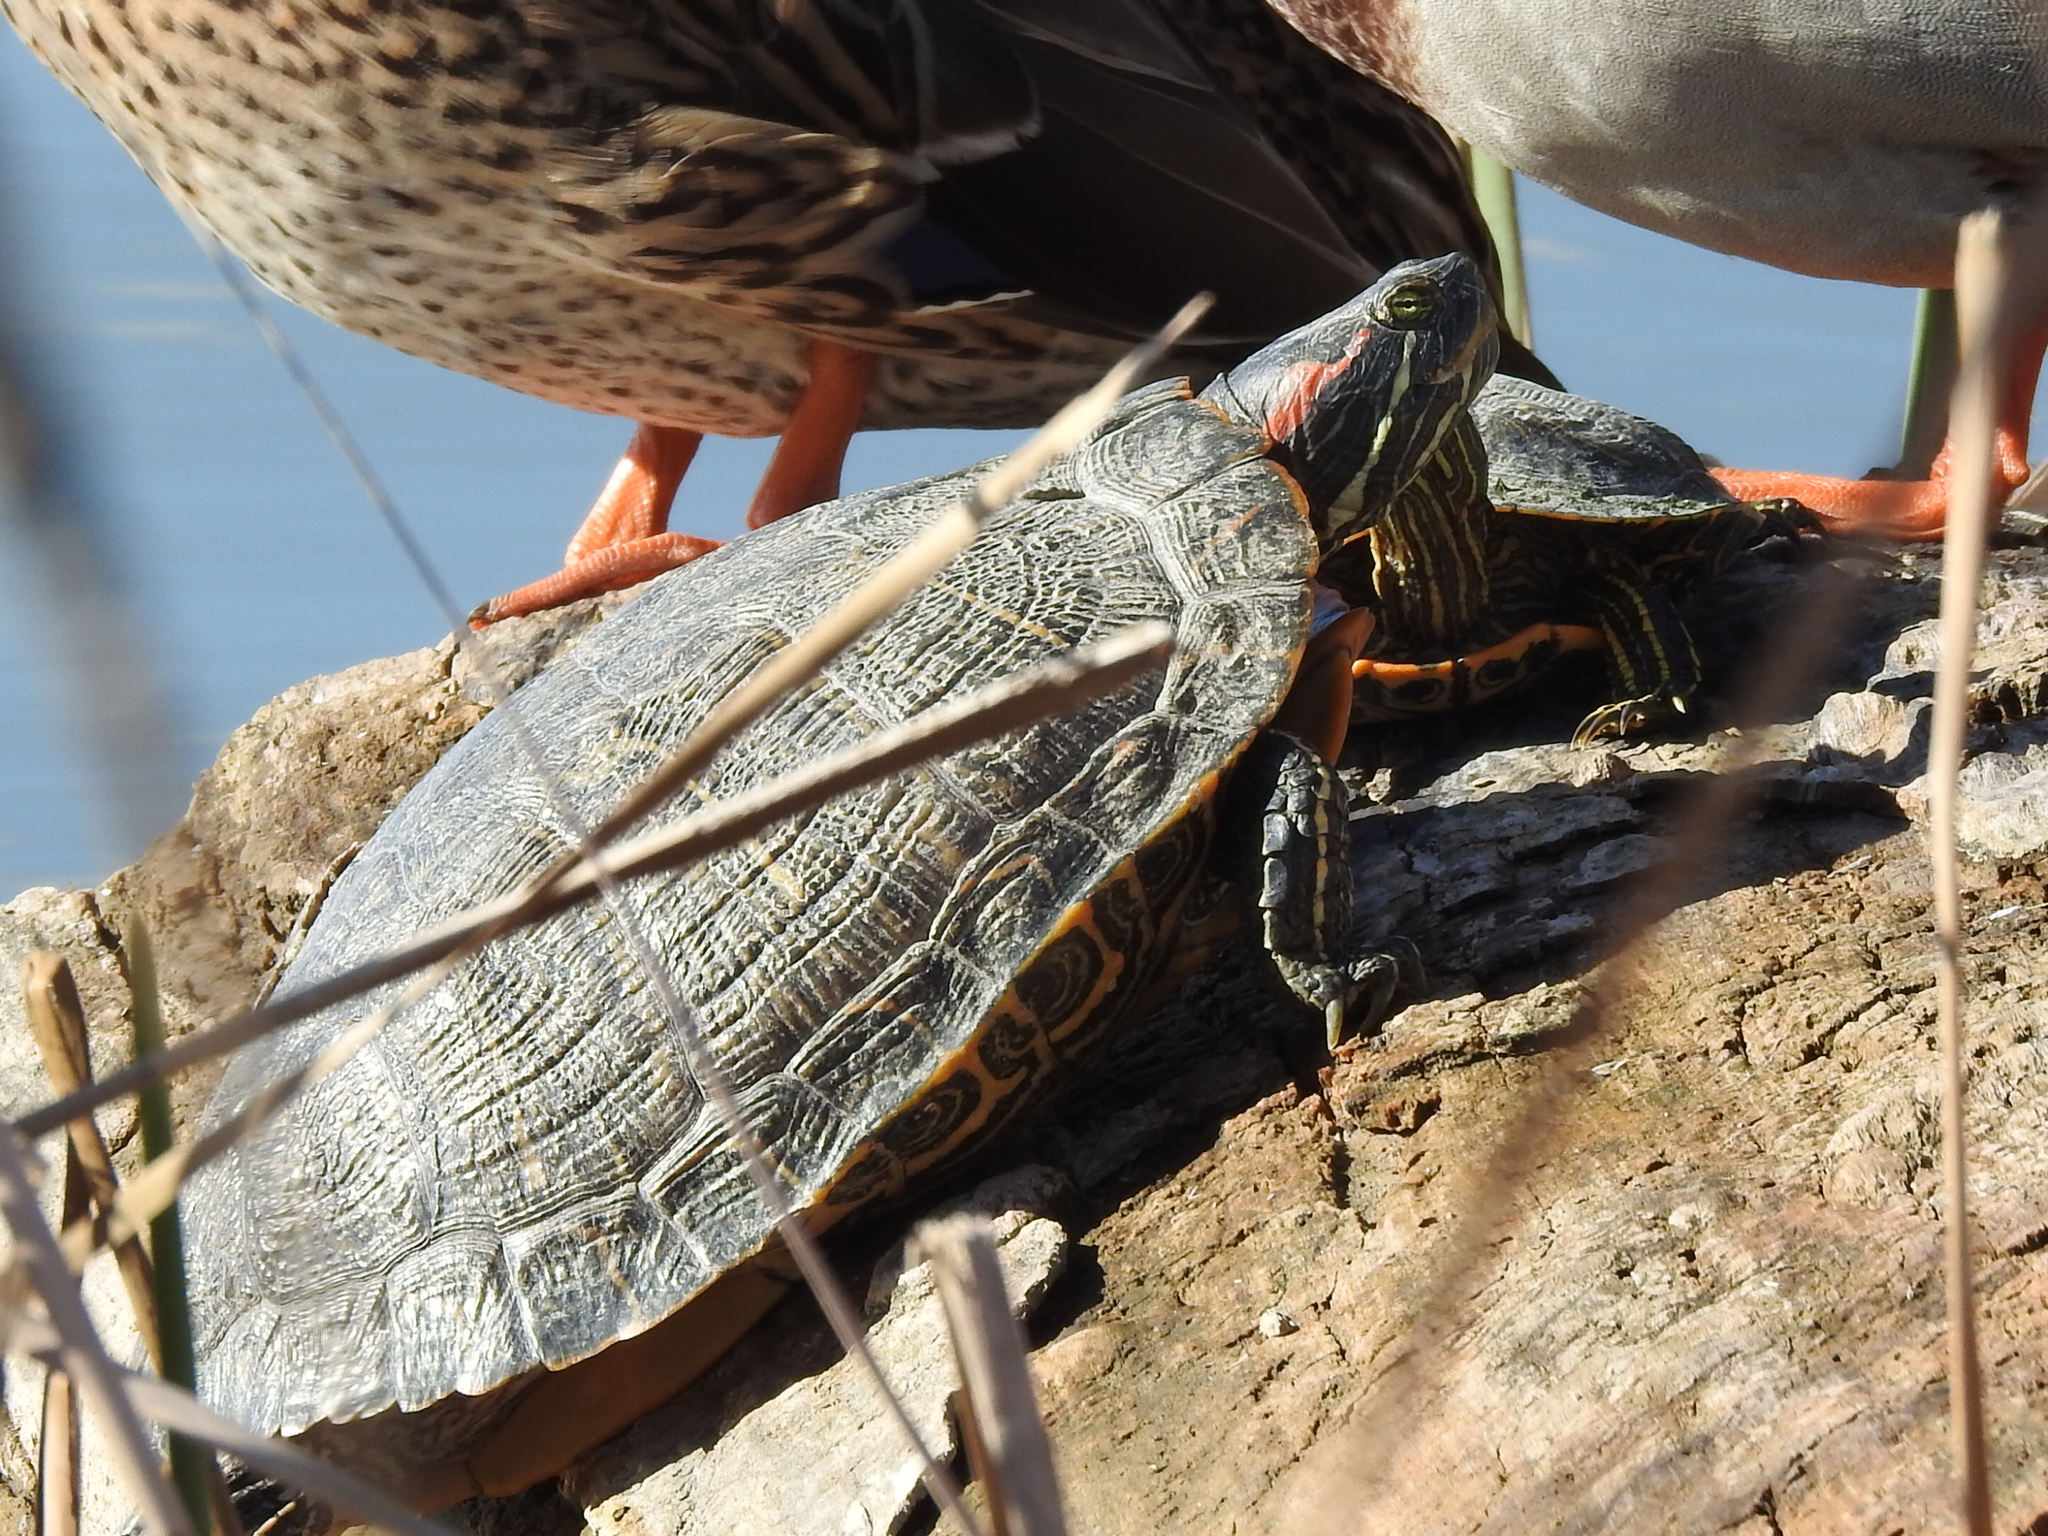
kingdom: Animalia
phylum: Chordata
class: Testudines
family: Emydidae
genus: Trachemys
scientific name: Trachemys scripta
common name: Slider
